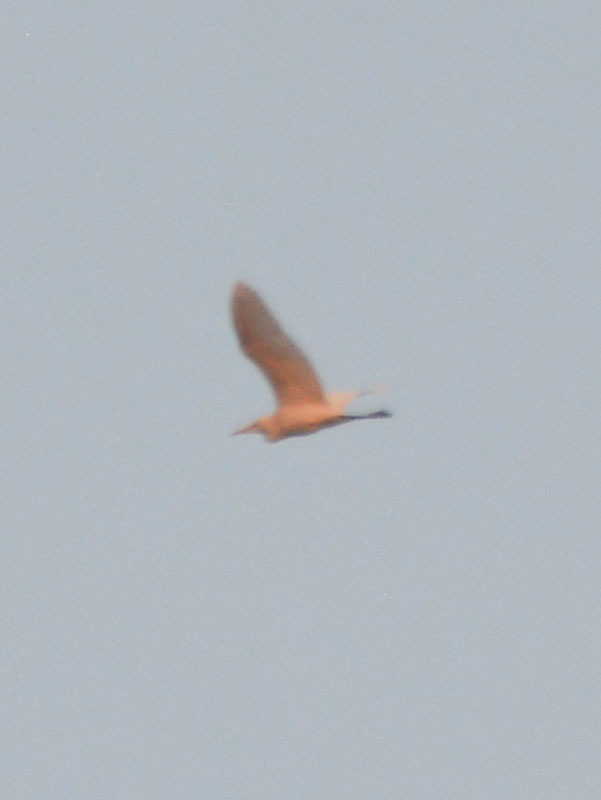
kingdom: Animalia
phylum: Chordata
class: Aves
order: Pelecaniformes
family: Ardeidae
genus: Bubulcus
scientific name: Bubulcus ibis
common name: Cattle egret
